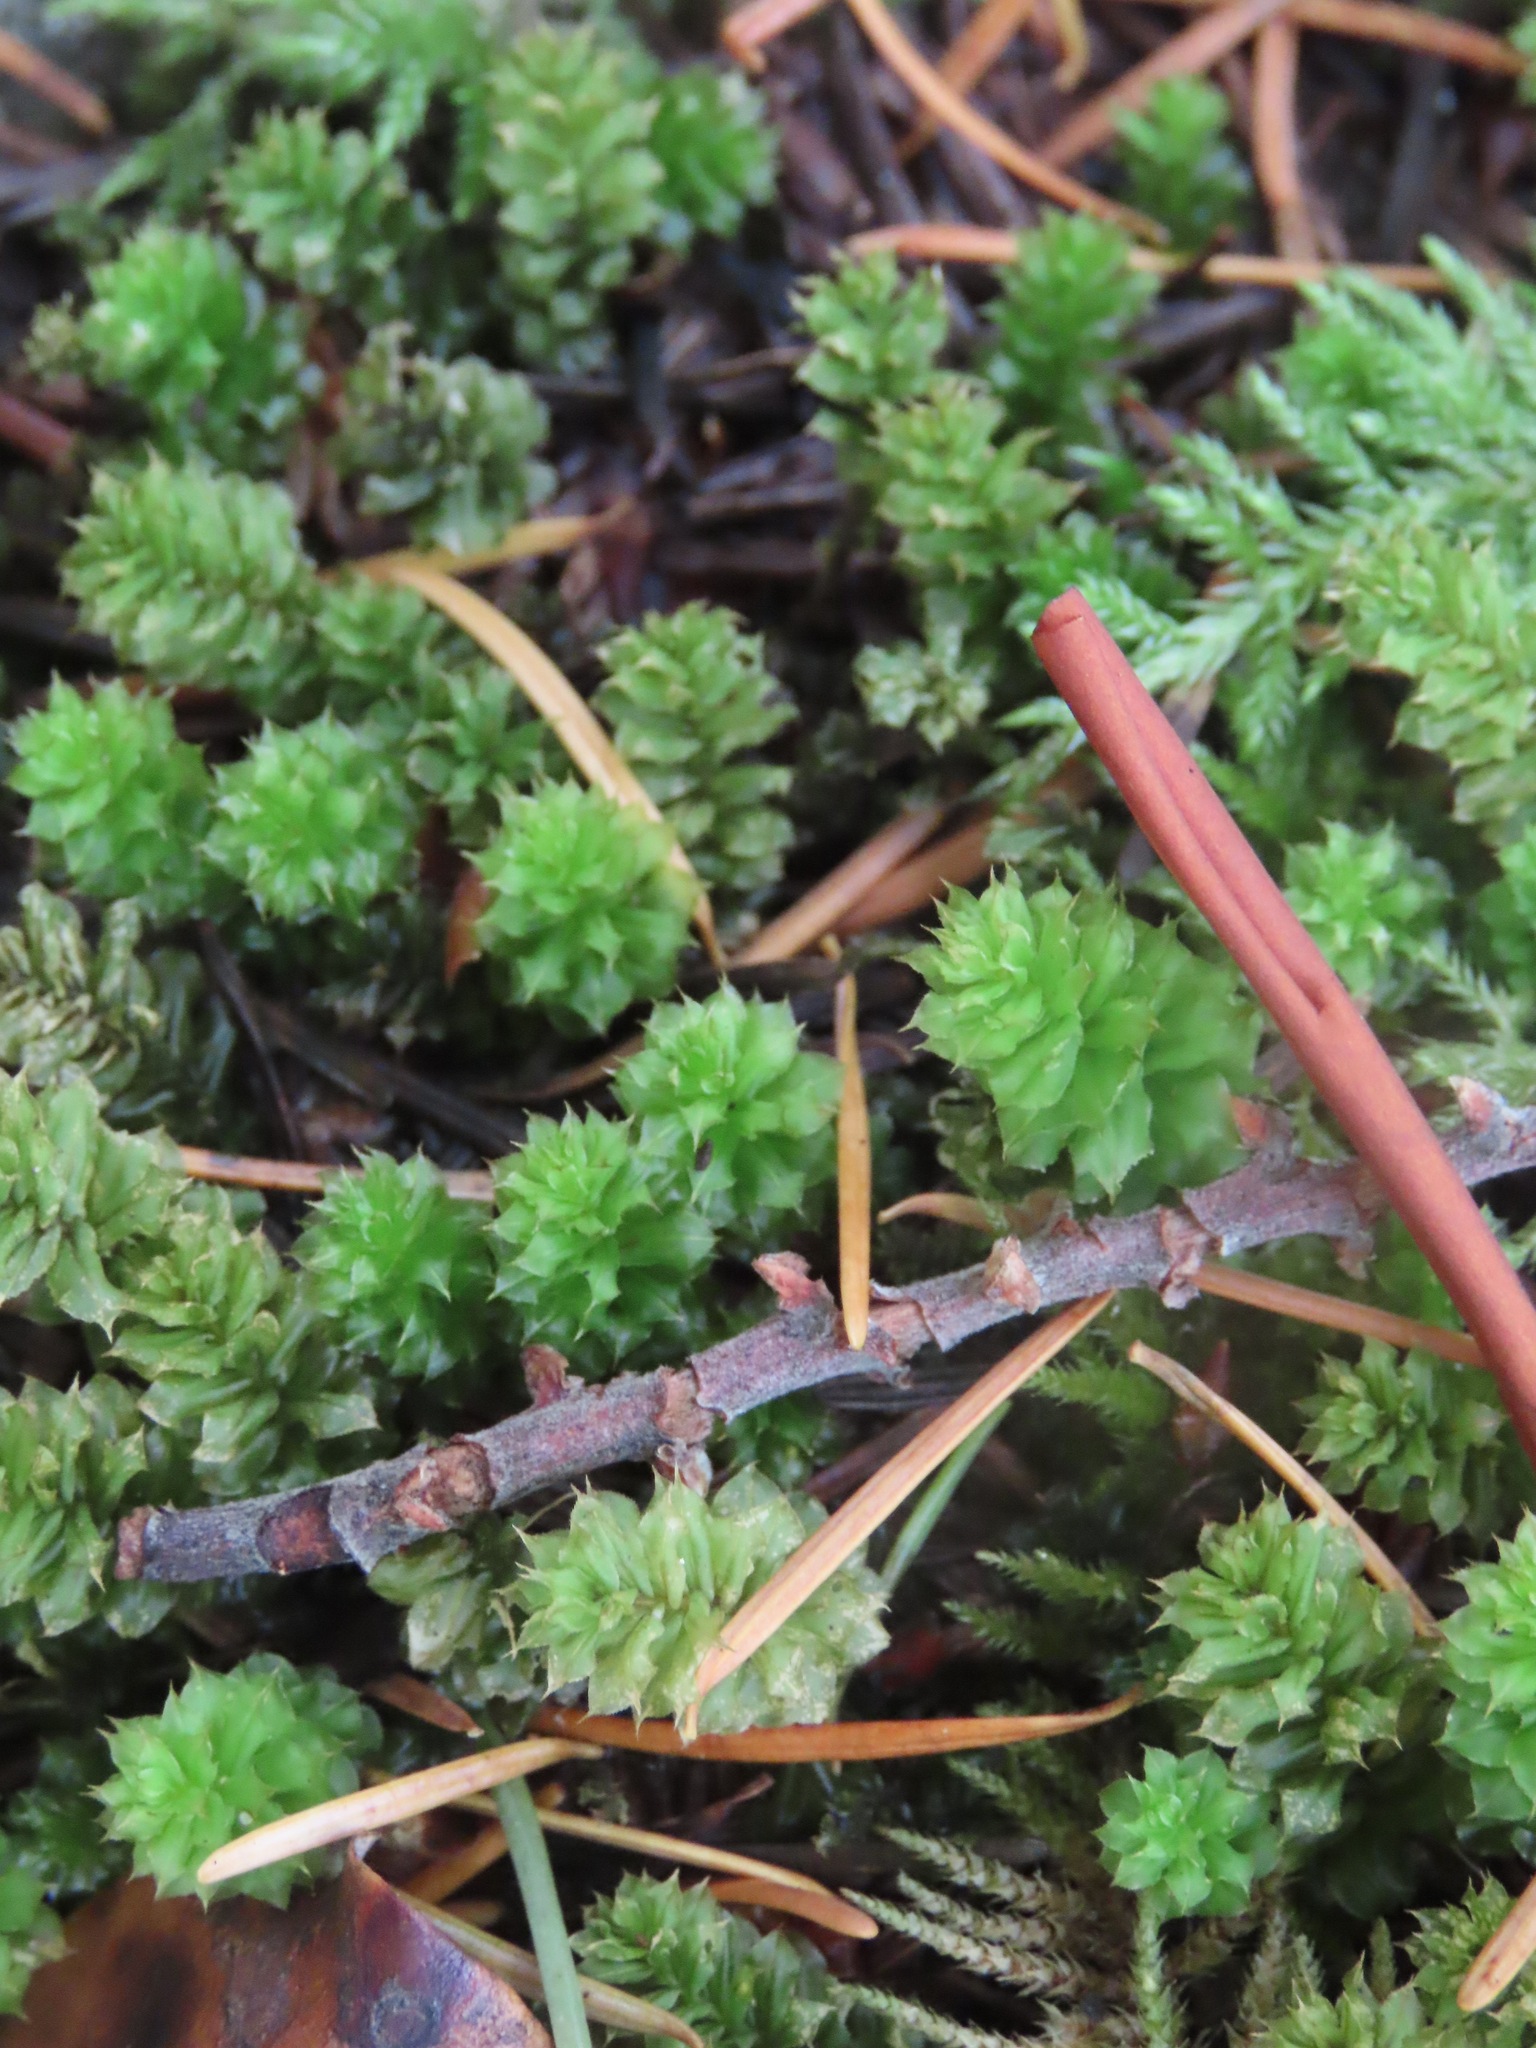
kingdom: Plantae
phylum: Bryophyta
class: Bryopsida
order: Bryales
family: Mniaceae
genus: Plagiomnium
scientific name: Plagiomnium venustum
